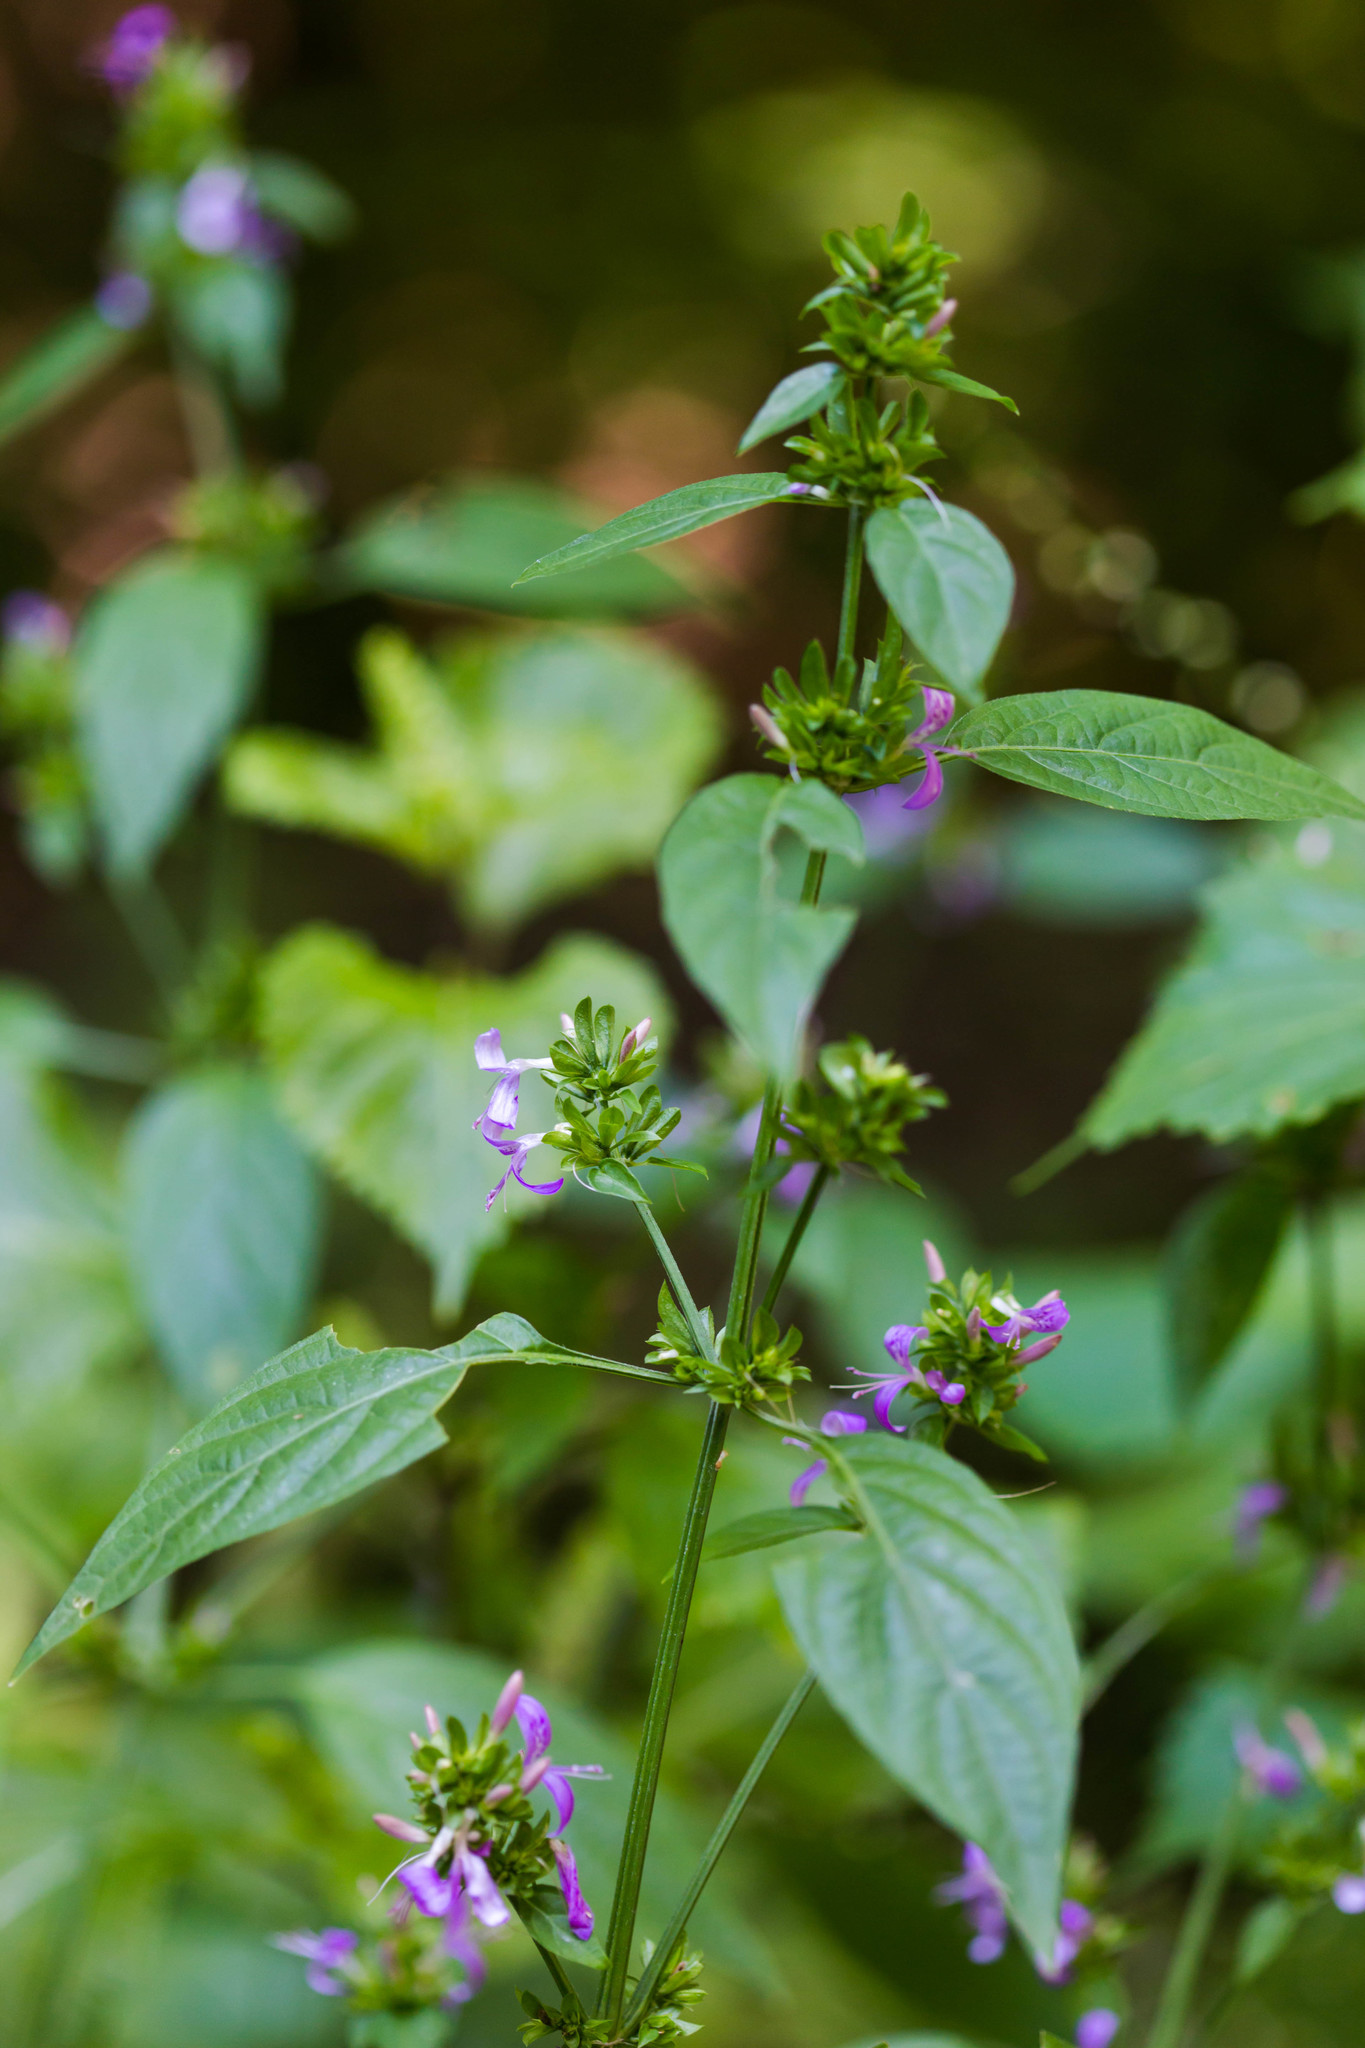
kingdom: Plantae
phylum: Tracheophyta
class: Magnoliopsida
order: Lamiales
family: Acanthaceae
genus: Dicliptera
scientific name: Dicliptera brachiata
